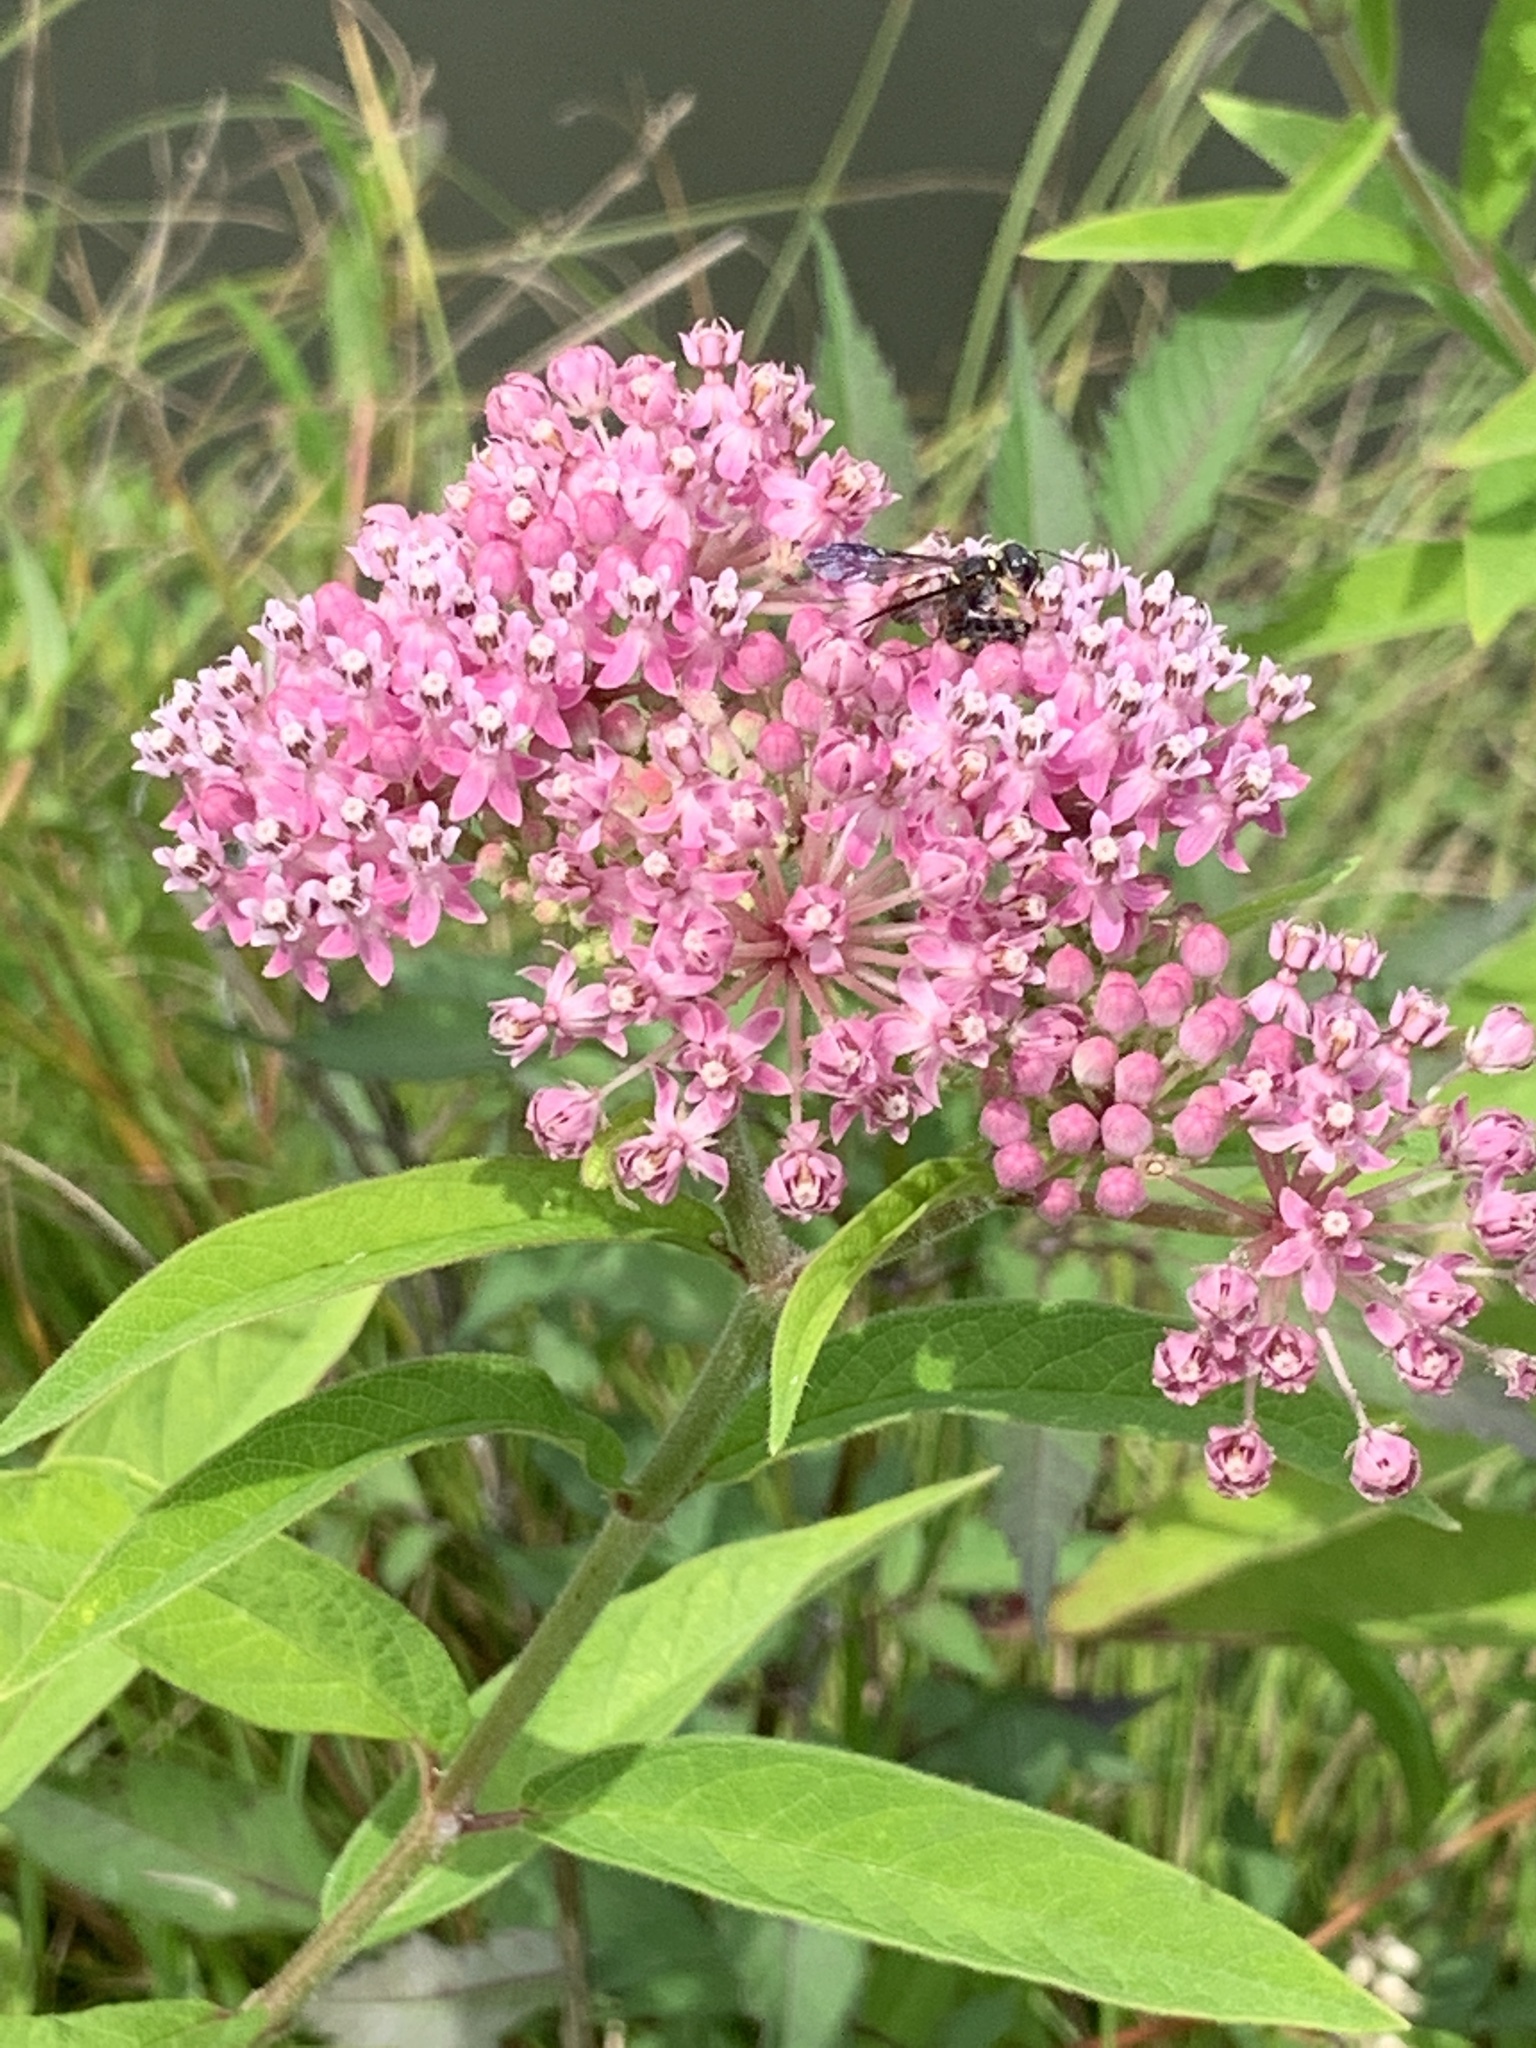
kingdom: Plantae
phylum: Tracheophyta
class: Magnoliopsida
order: Gentianales
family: Apocynaceae
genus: Asclepias
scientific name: Asclepias incarnata
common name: Swamp milkweed
